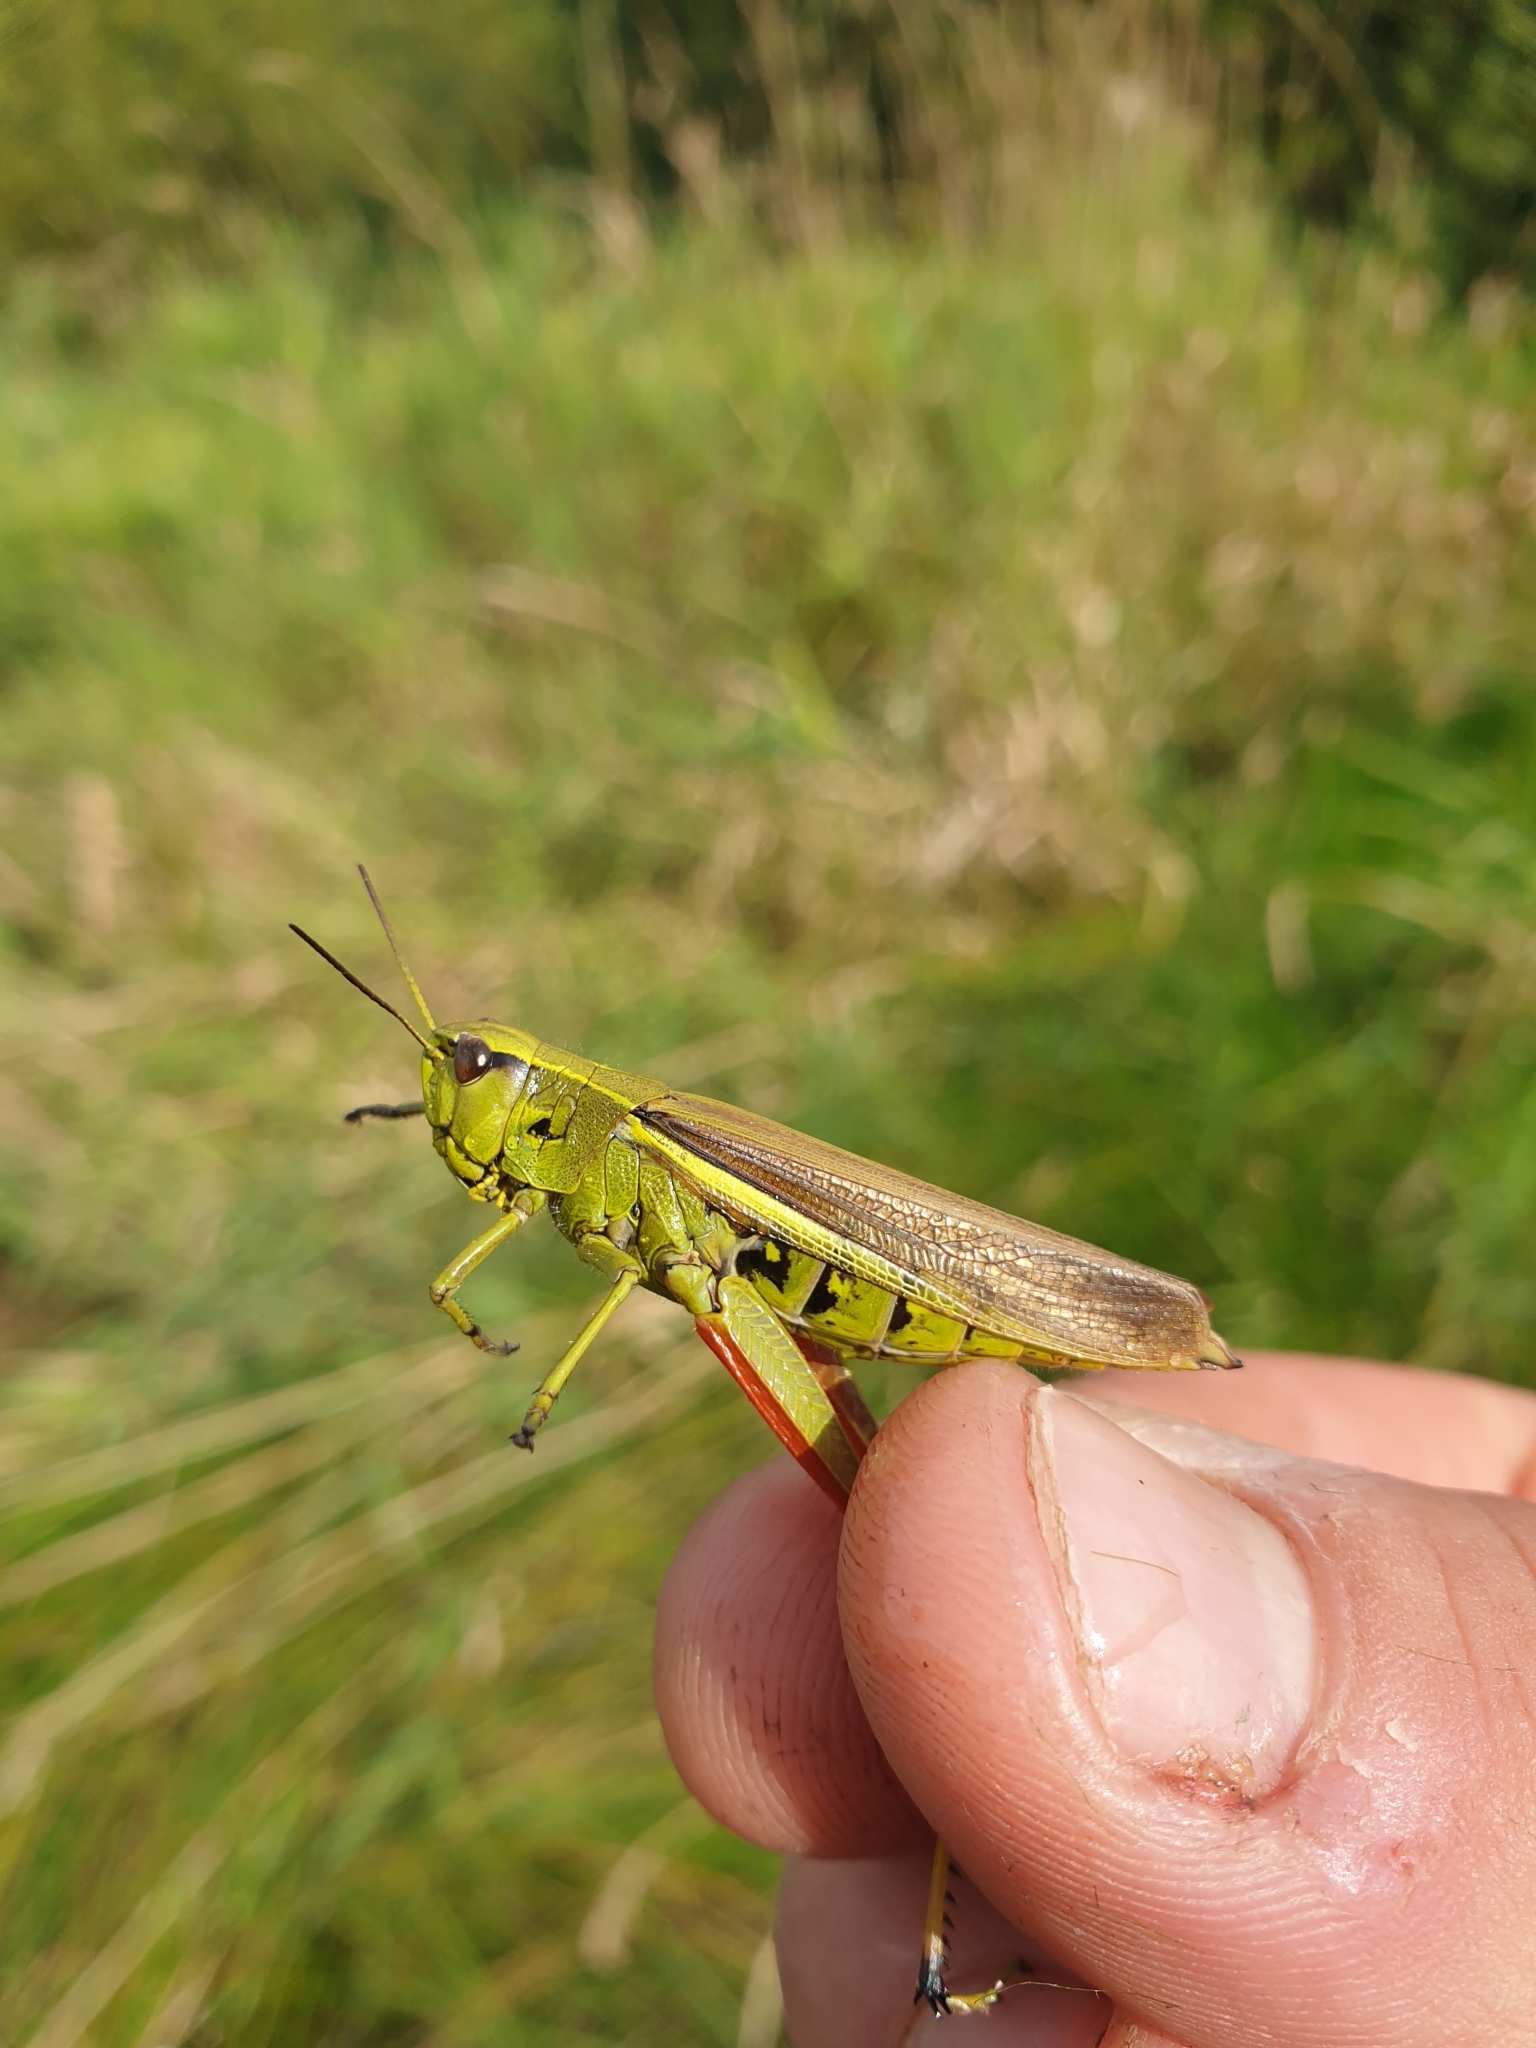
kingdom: Animalia
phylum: Arthropoda
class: Insecta
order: Orthoptera
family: Acrididae
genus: Stethophyma
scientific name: Stethophyma grossum
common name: Large marsh grasshopper
